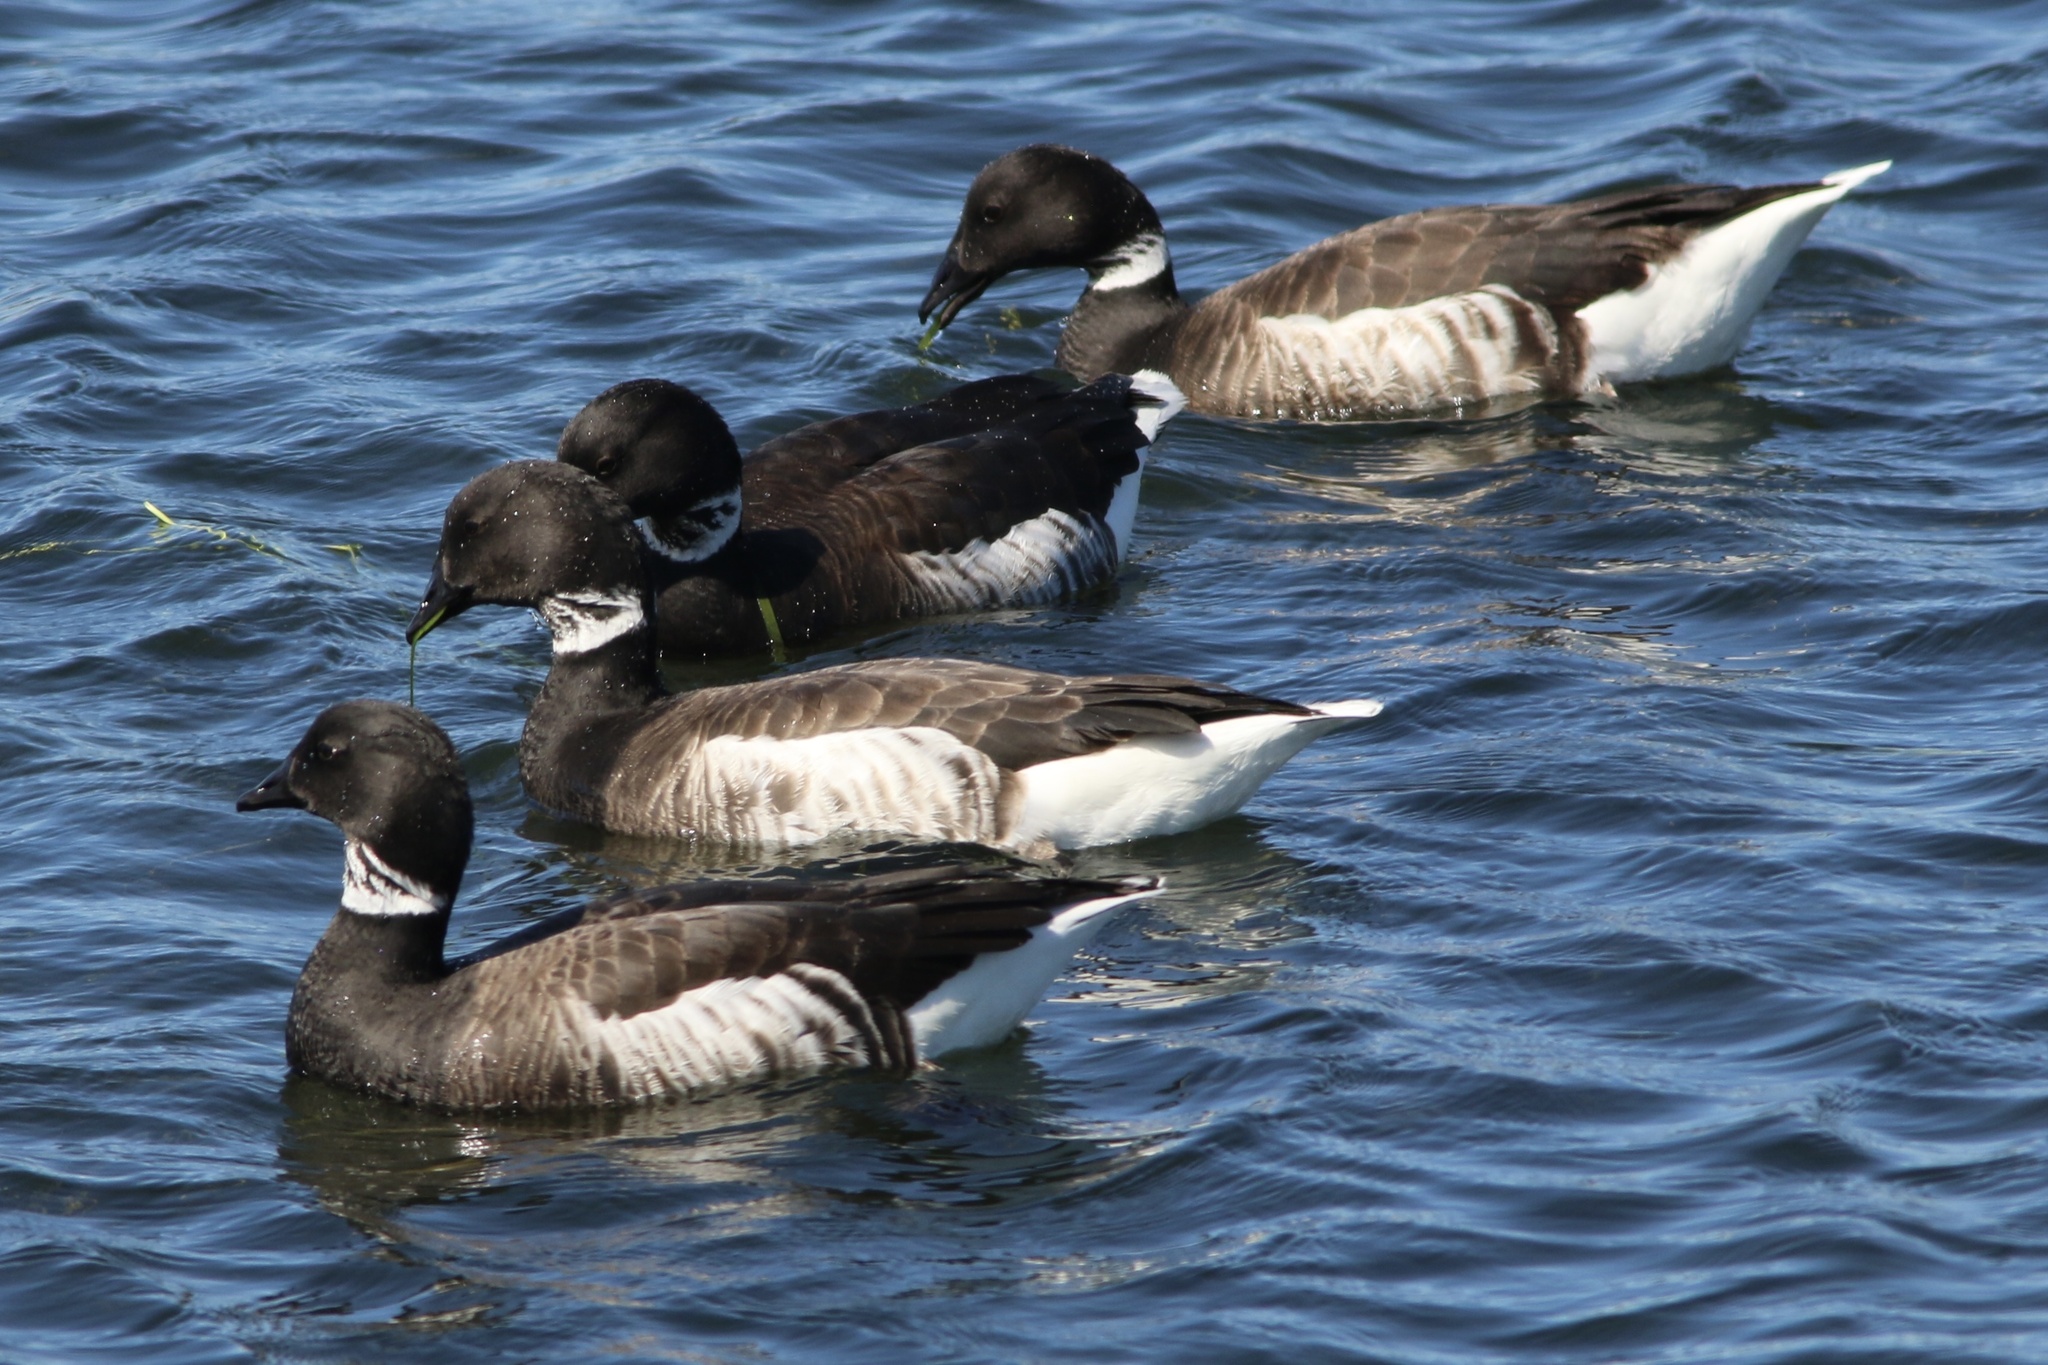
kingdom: Animalia
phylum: Chordata
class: Aves
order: Anseriformes
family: Anatidae
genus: Branta
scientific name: Branta bernicla
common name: Brant goose
